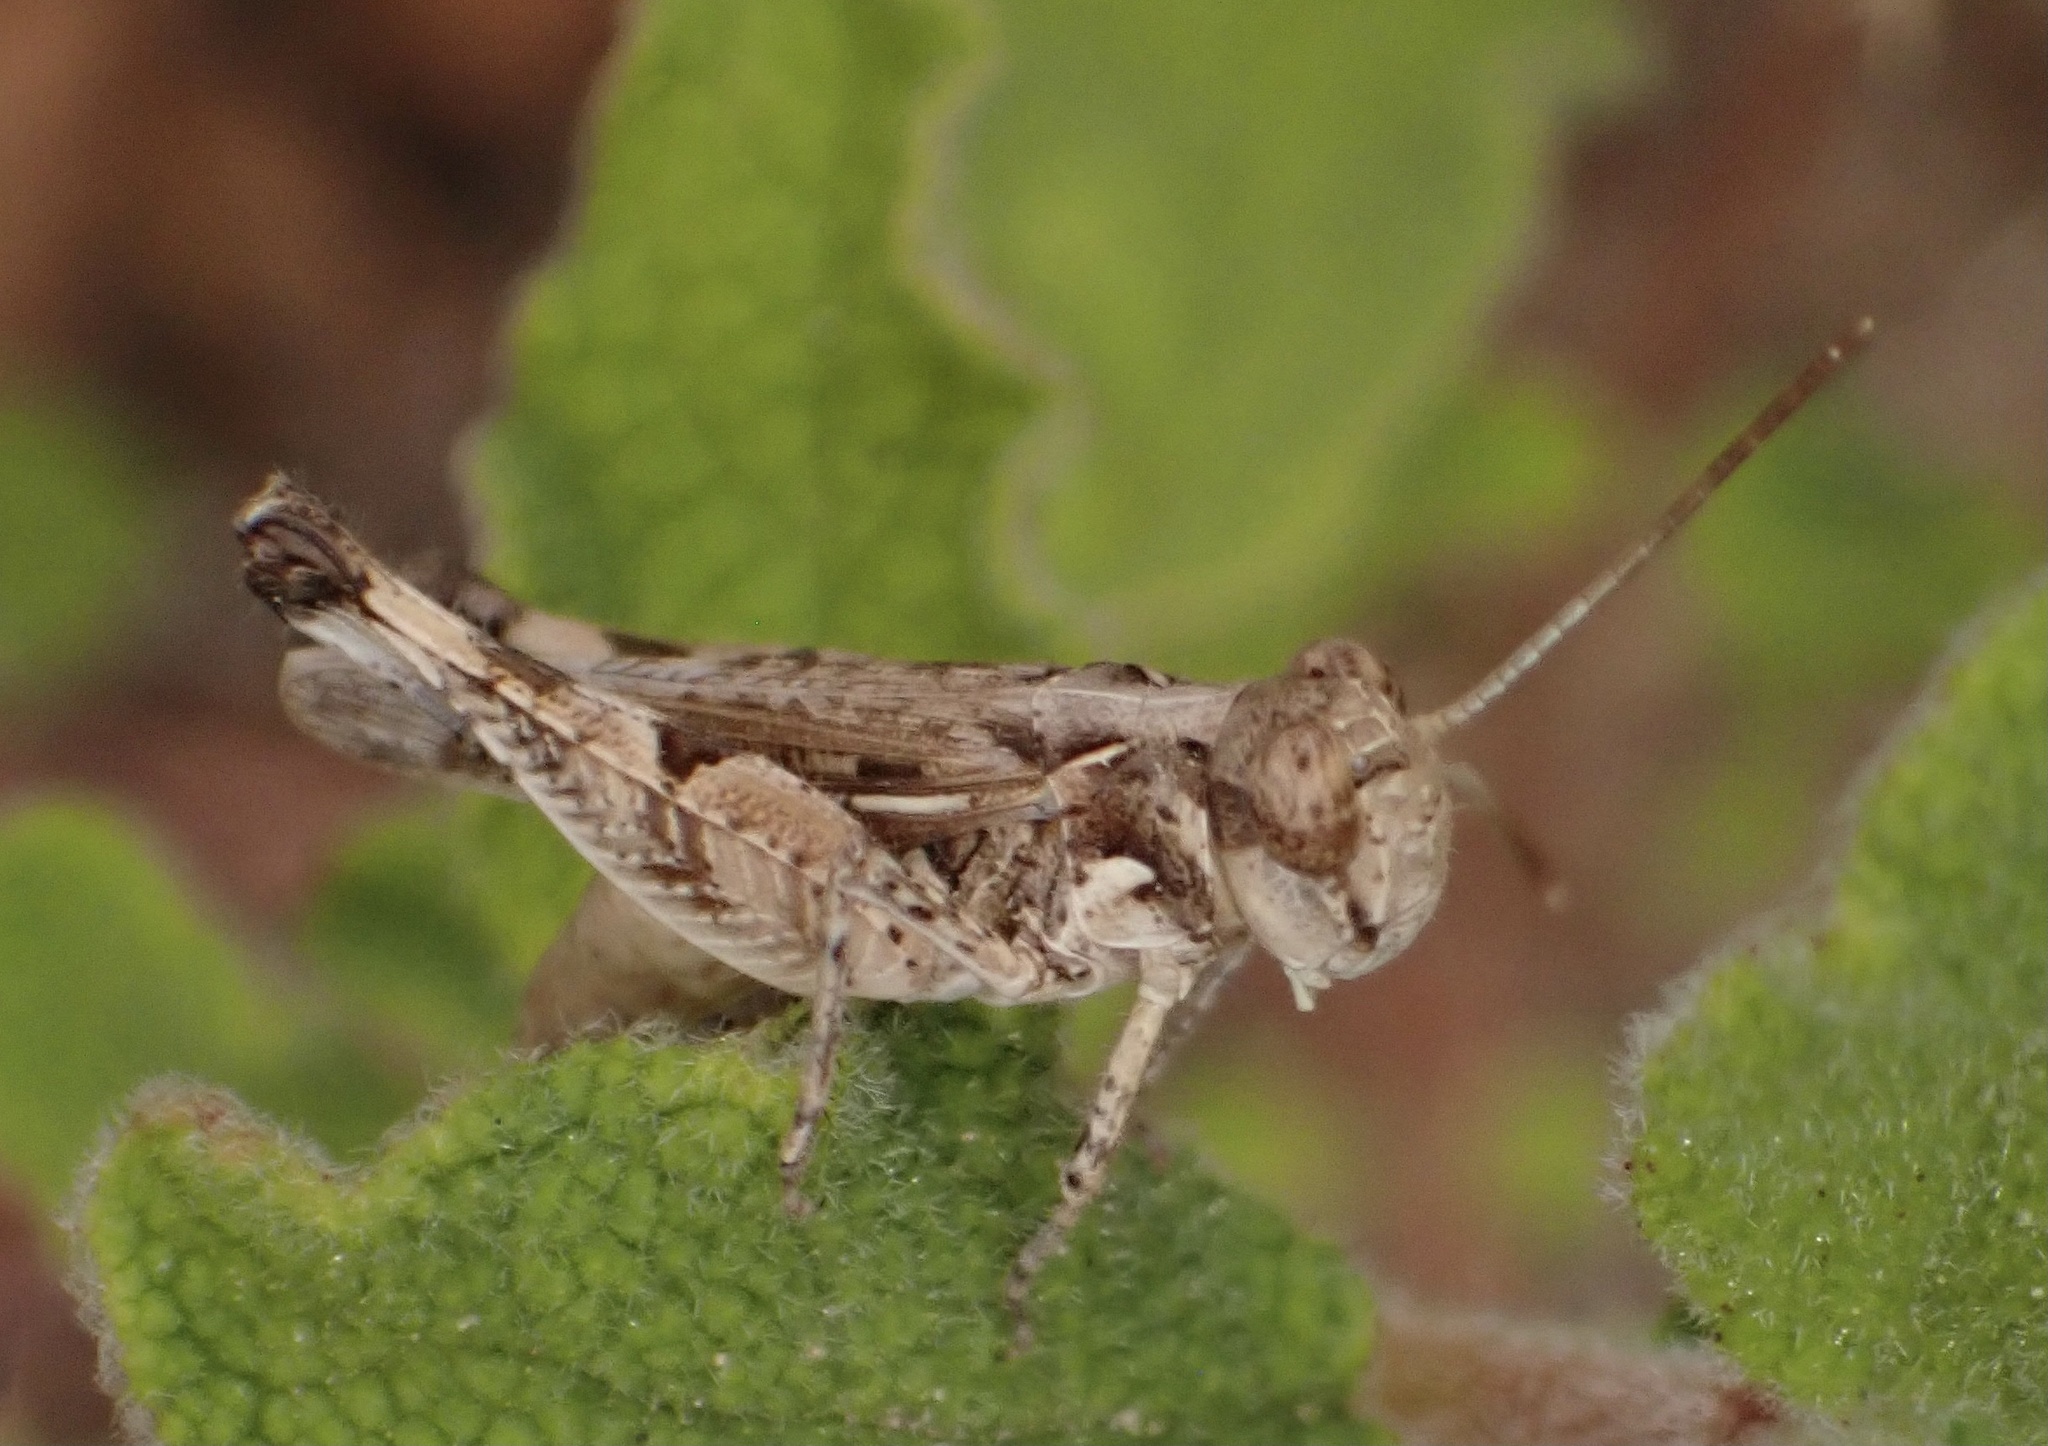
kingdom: Animalia
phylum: Arthropoda
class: Insecta
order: Orthoptera
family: Acrididae
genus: Dociostaurus
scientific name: Dociostaurus genei
